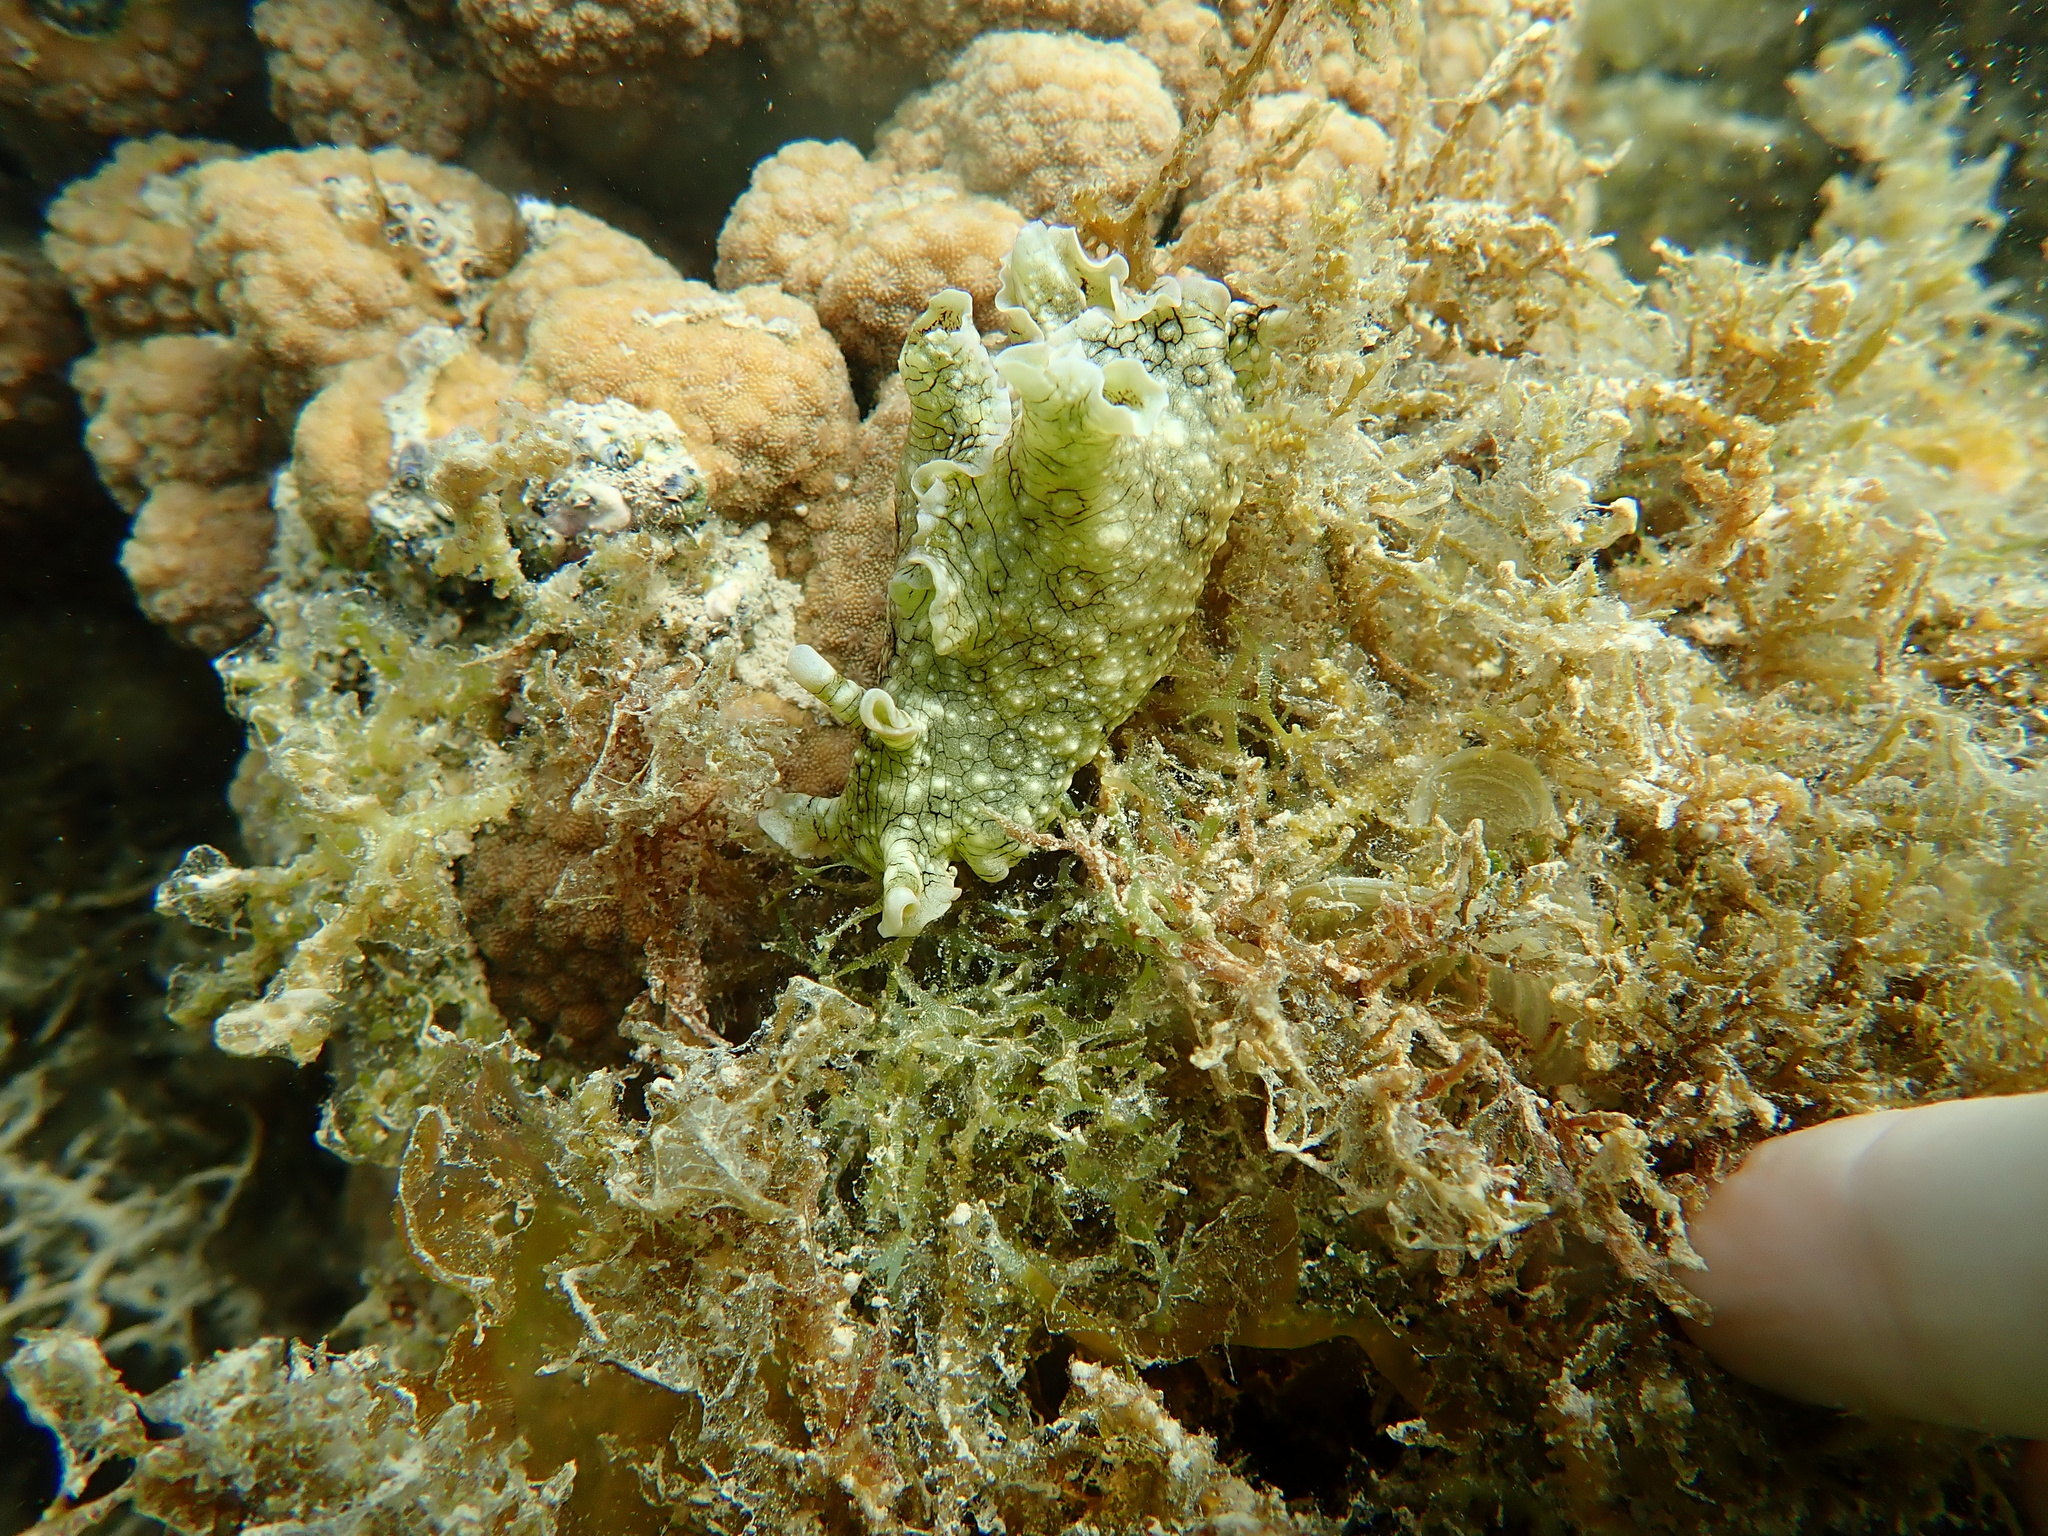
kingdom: Animalia
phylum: Mollusca
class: Gastropoda
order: Aplysiida
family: Aplysiidae
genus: Aplysia
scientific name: Aplysia argus
